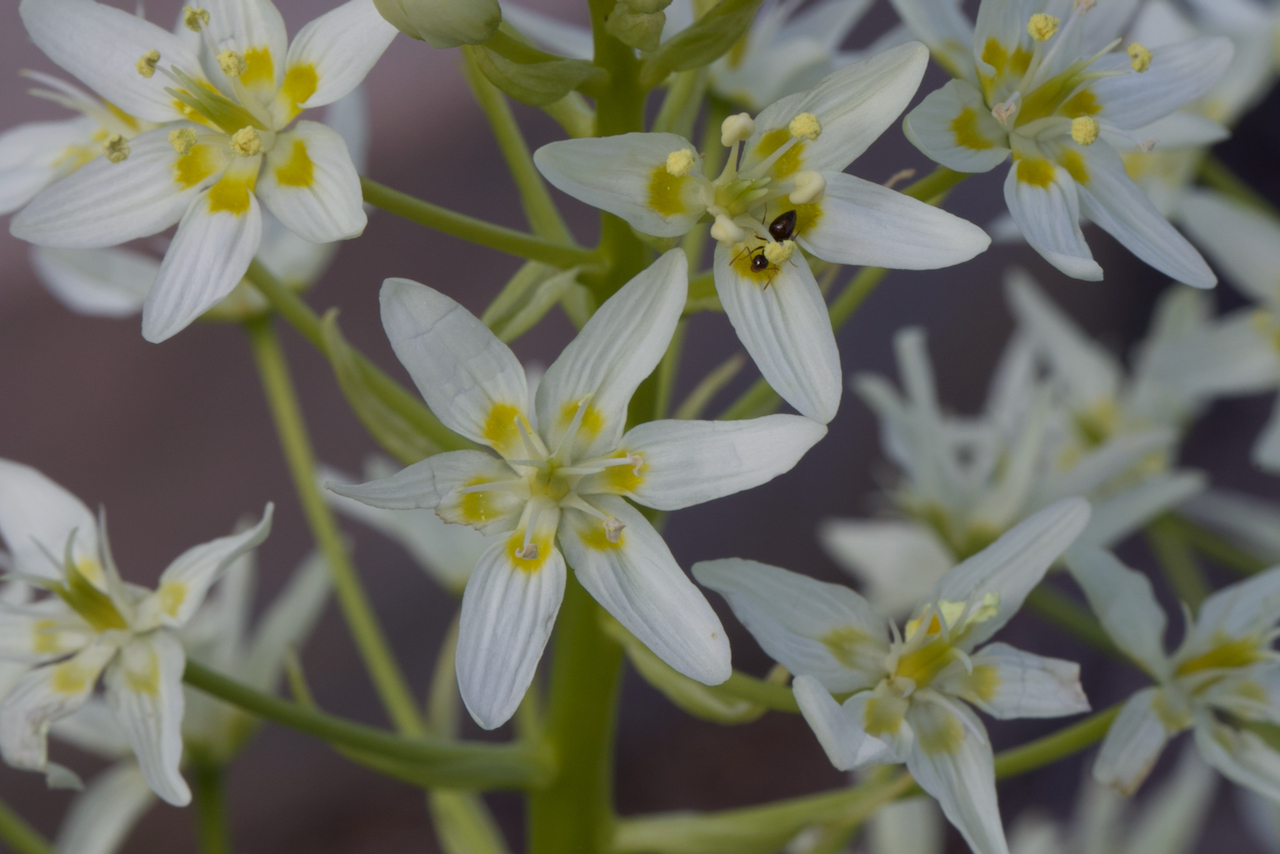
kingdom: Plantae
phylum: Tracheophyta
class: Liliopsida
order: Liliales
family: Melanthiaceae
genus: Toxicoscordion
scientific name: Toxicoscordion fremontii
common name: Fremont's death camas
